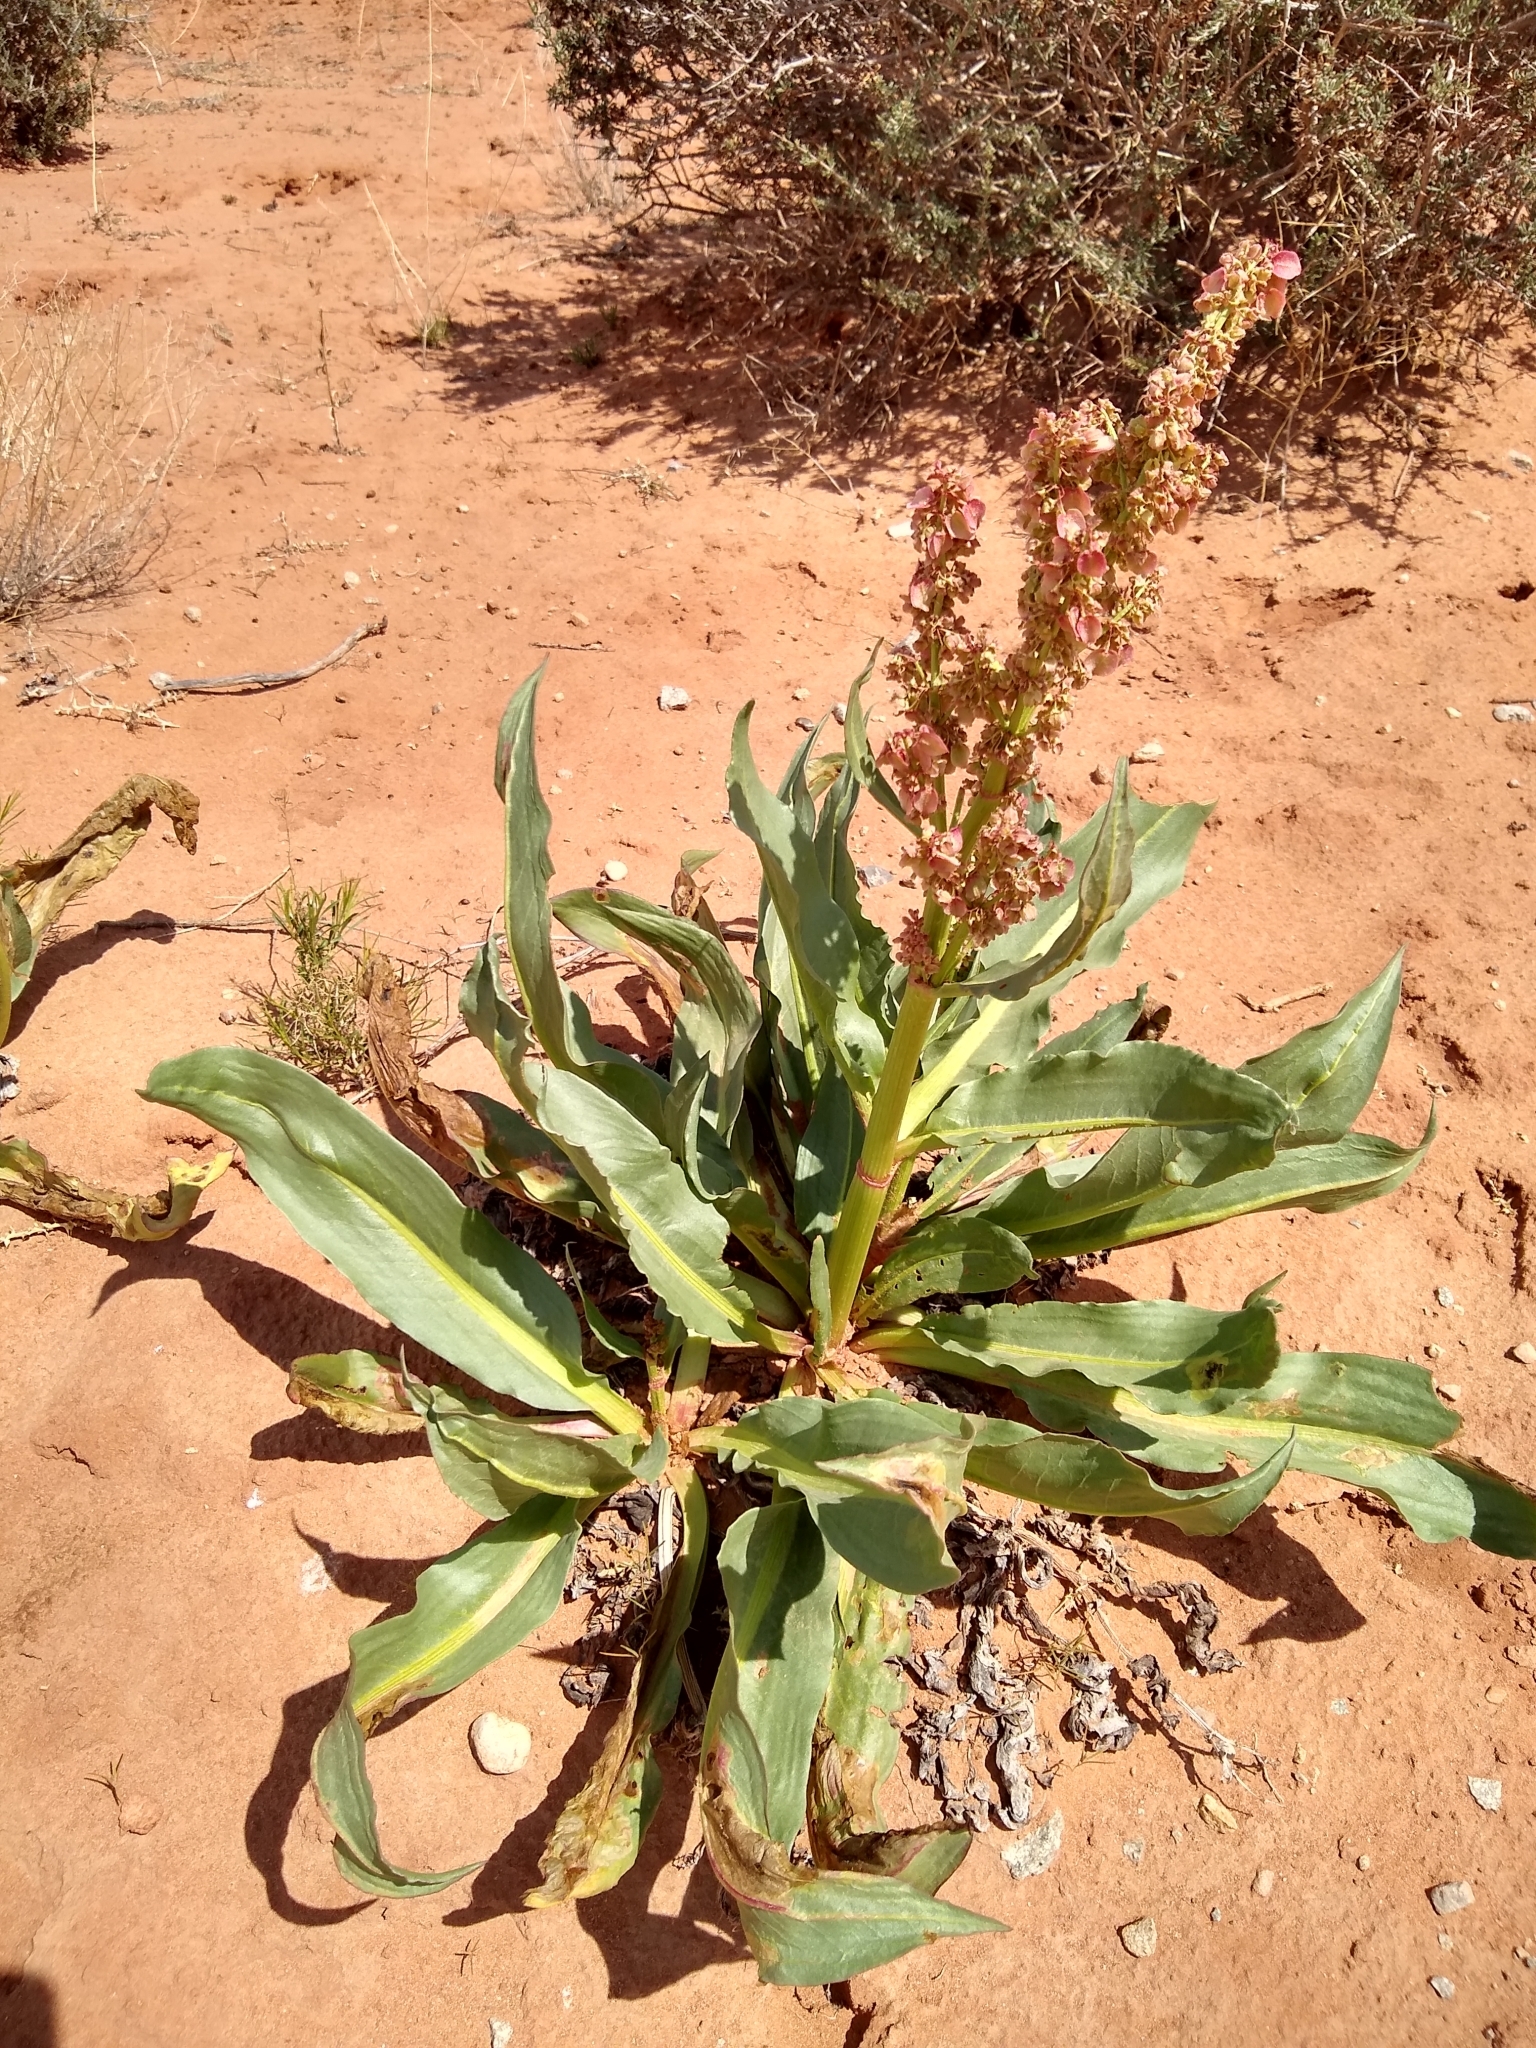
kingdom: Plantae
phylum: Tracheophyta
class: Magnoliopsida
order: Caryophyllales
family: Polygonaceae
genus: Rumex
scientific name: Rumex hymenosepalus
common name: Ganagra
